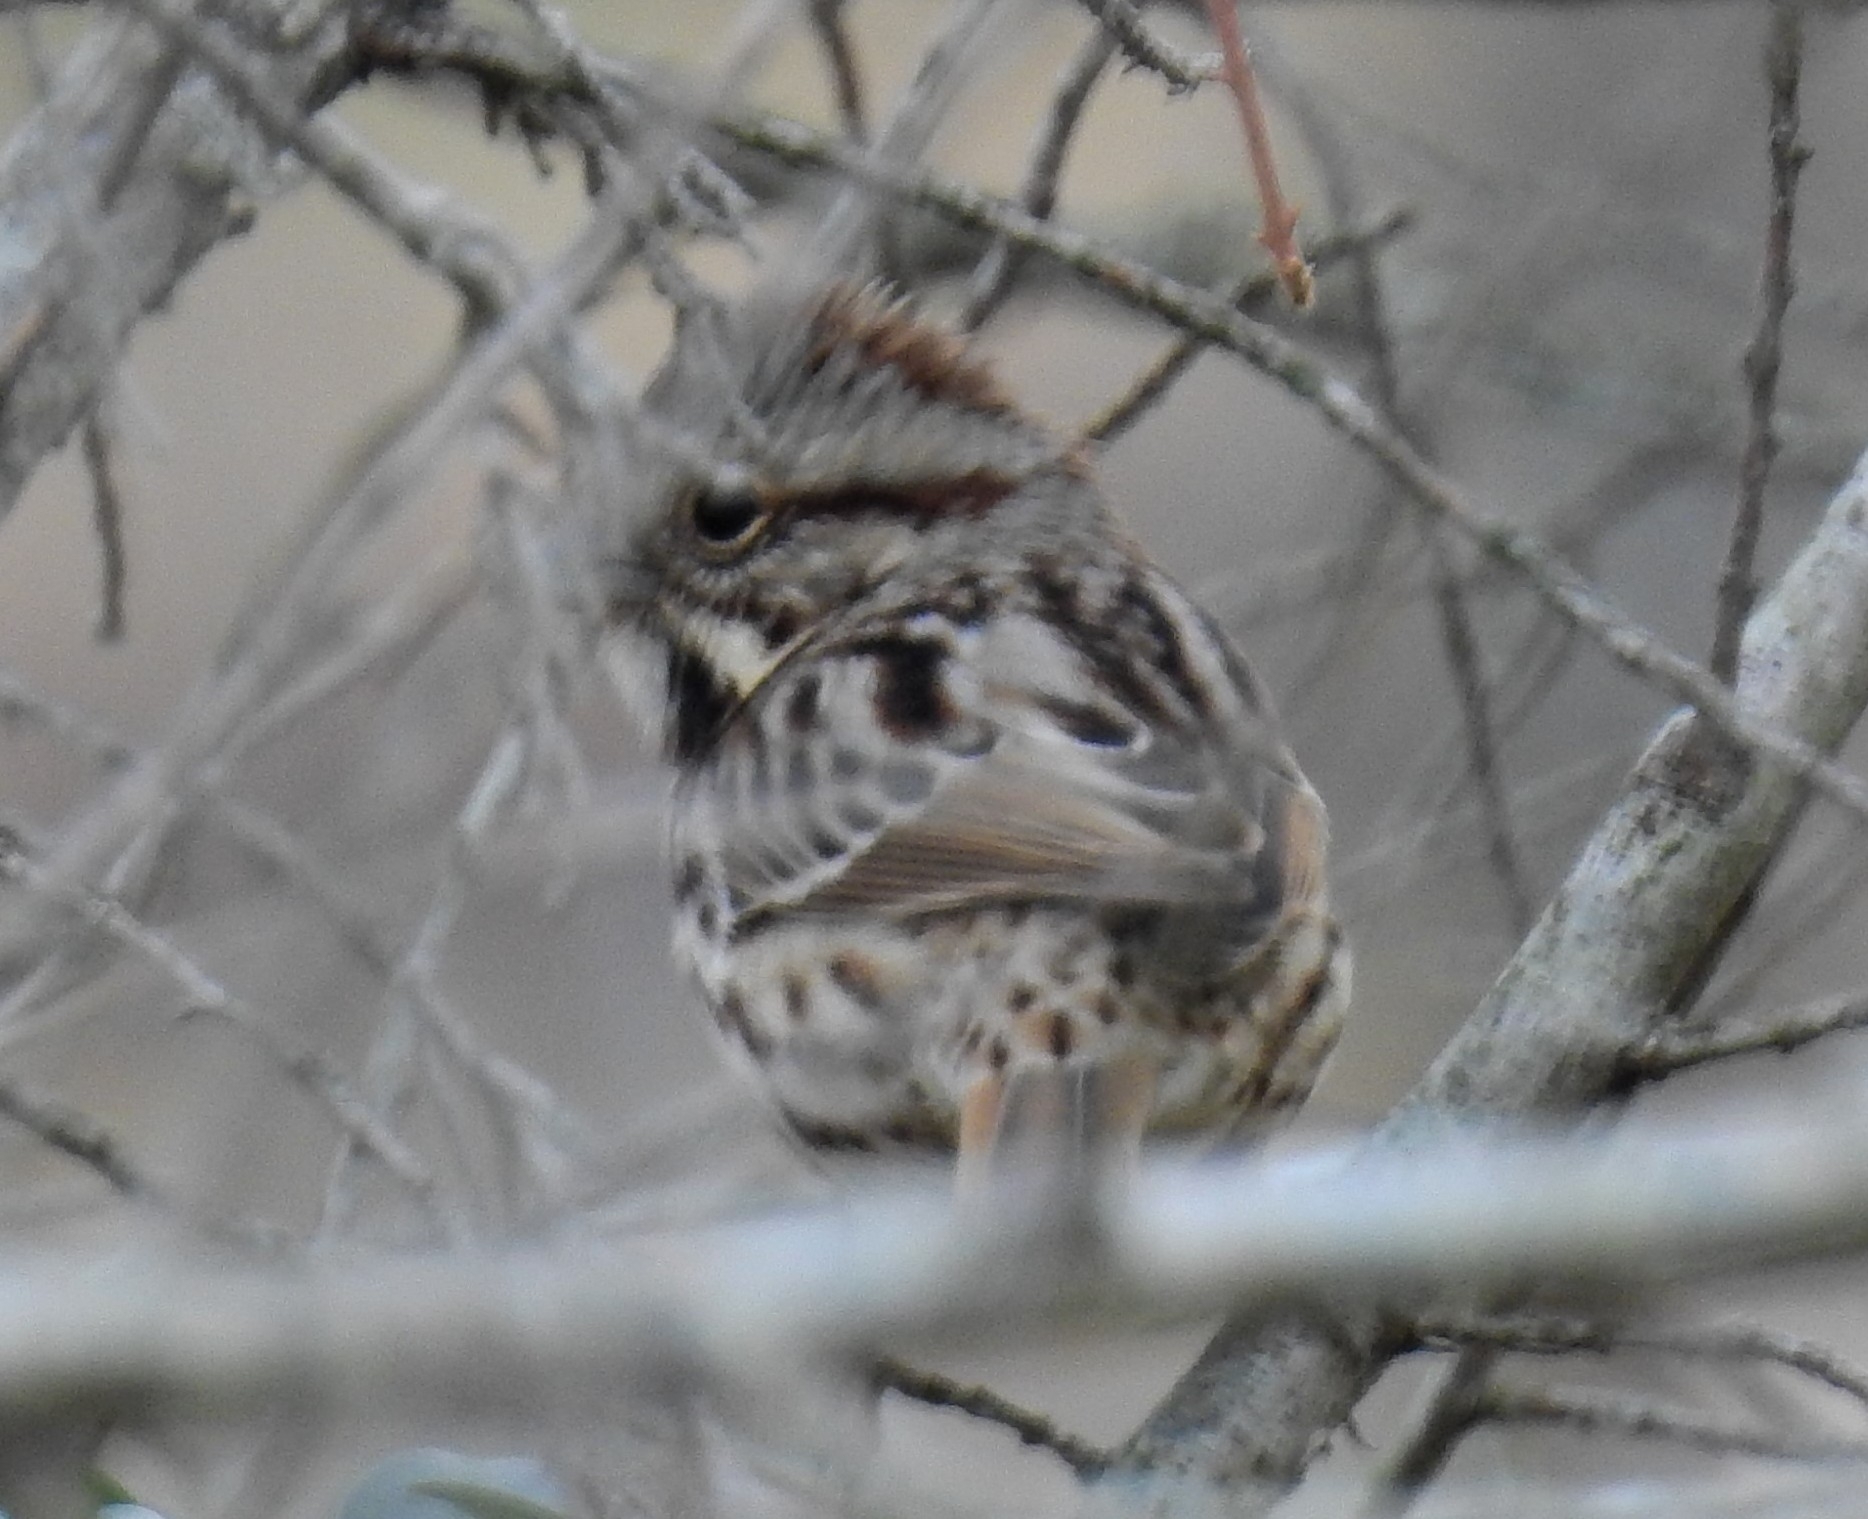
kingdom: Animalia
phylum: Chordata
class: Aves
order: Passeriformes
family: Passerellidae
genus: Melospiza
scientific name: Melospiza melodia
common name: Song sparrow
